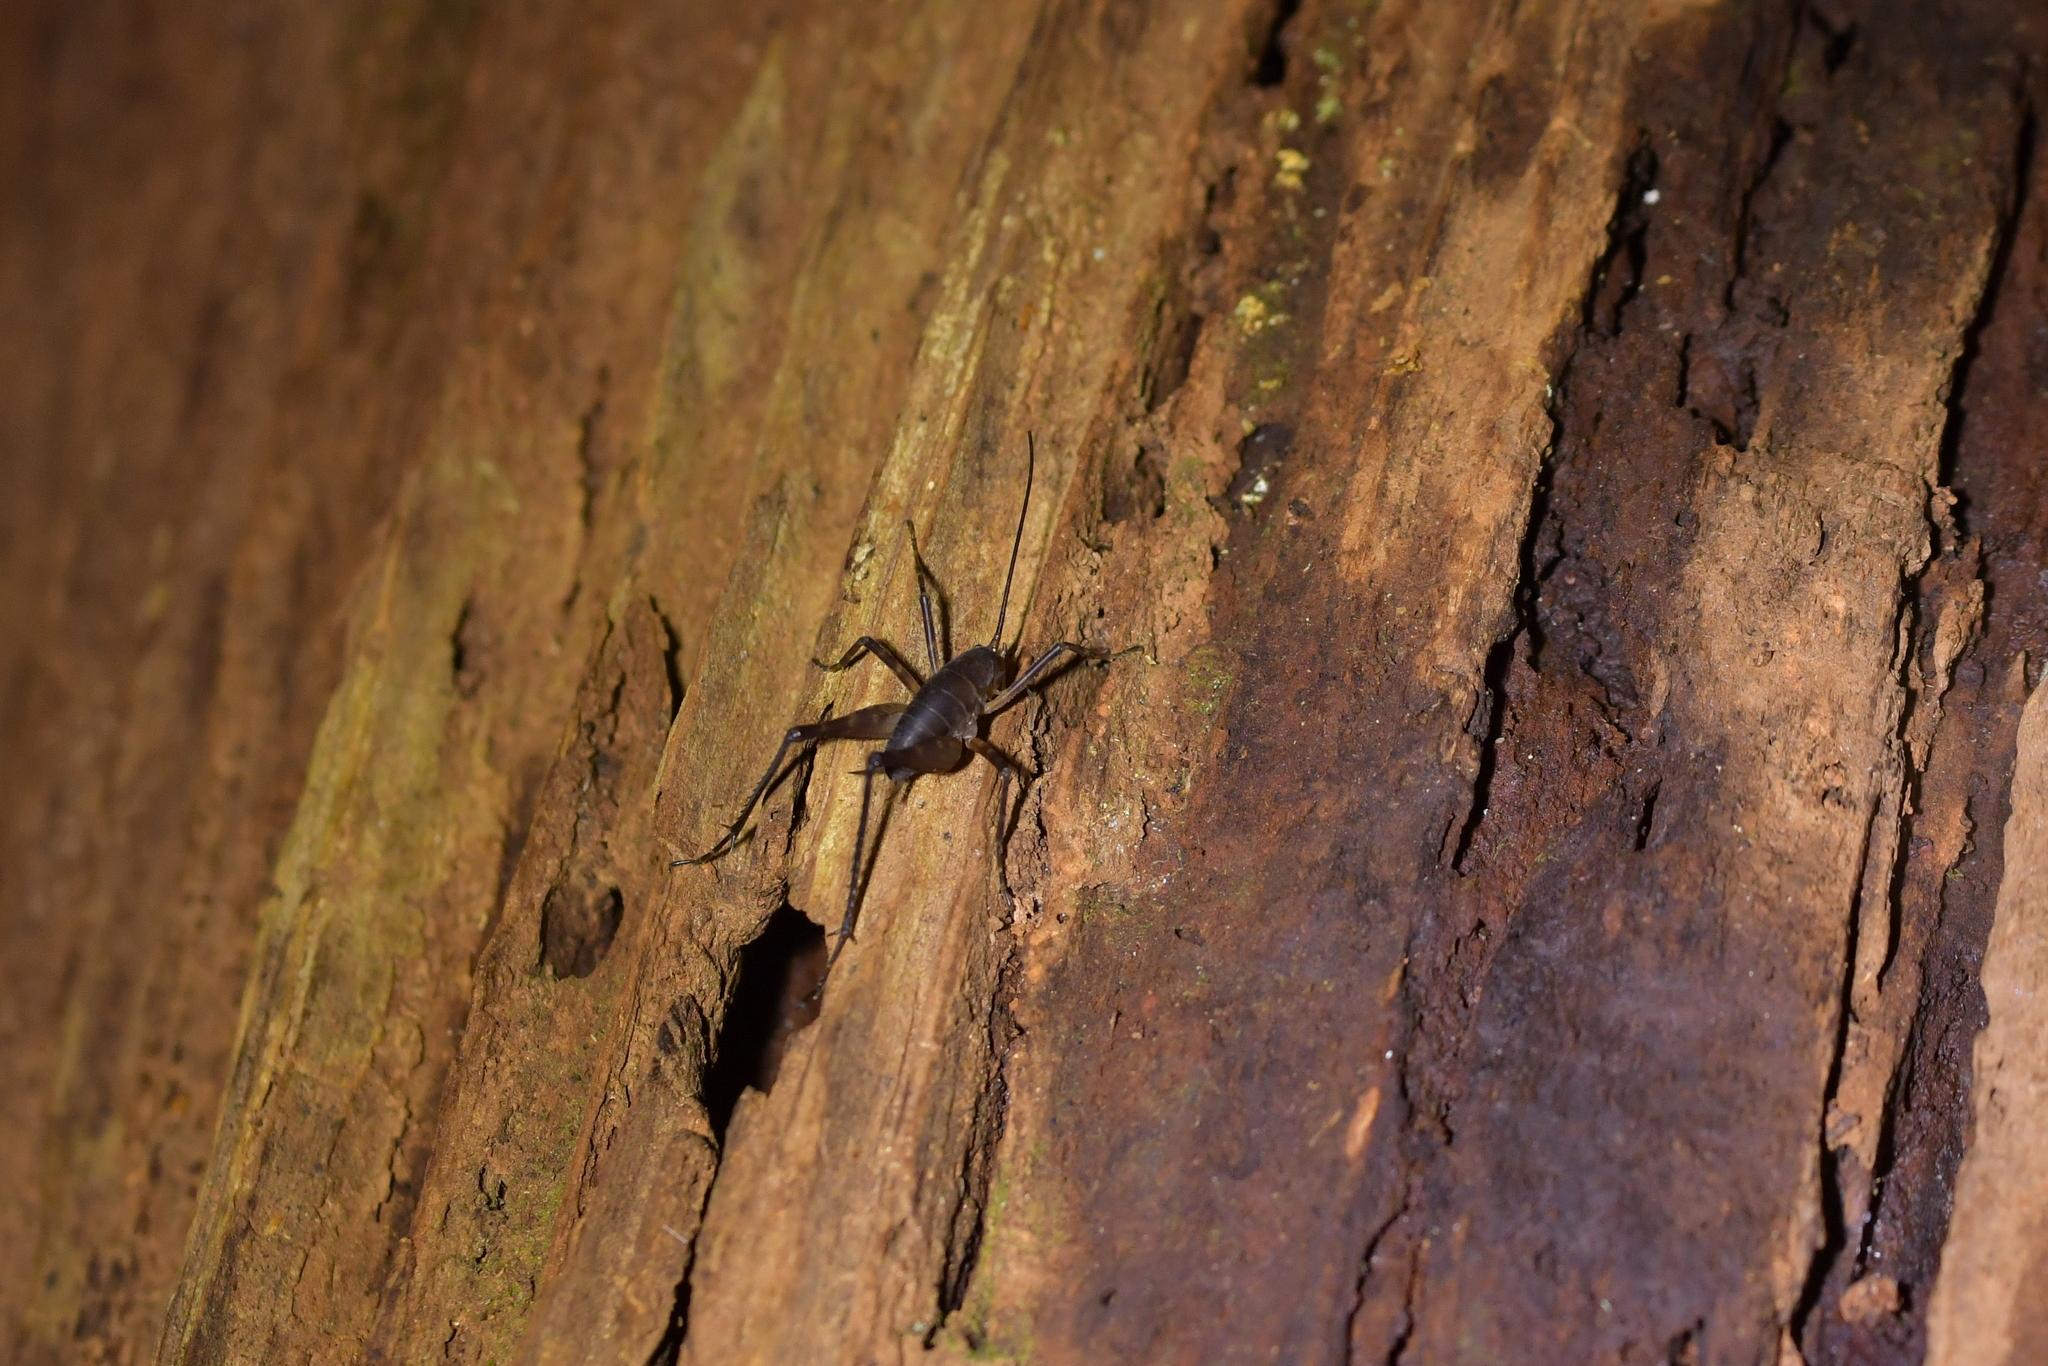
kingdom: Animalia
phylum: Arthropoda
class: Insecta
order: Orthoptera
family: Rhaphidophoridae
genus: Pachyrhamma
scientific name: Pachyrhamma longipes
